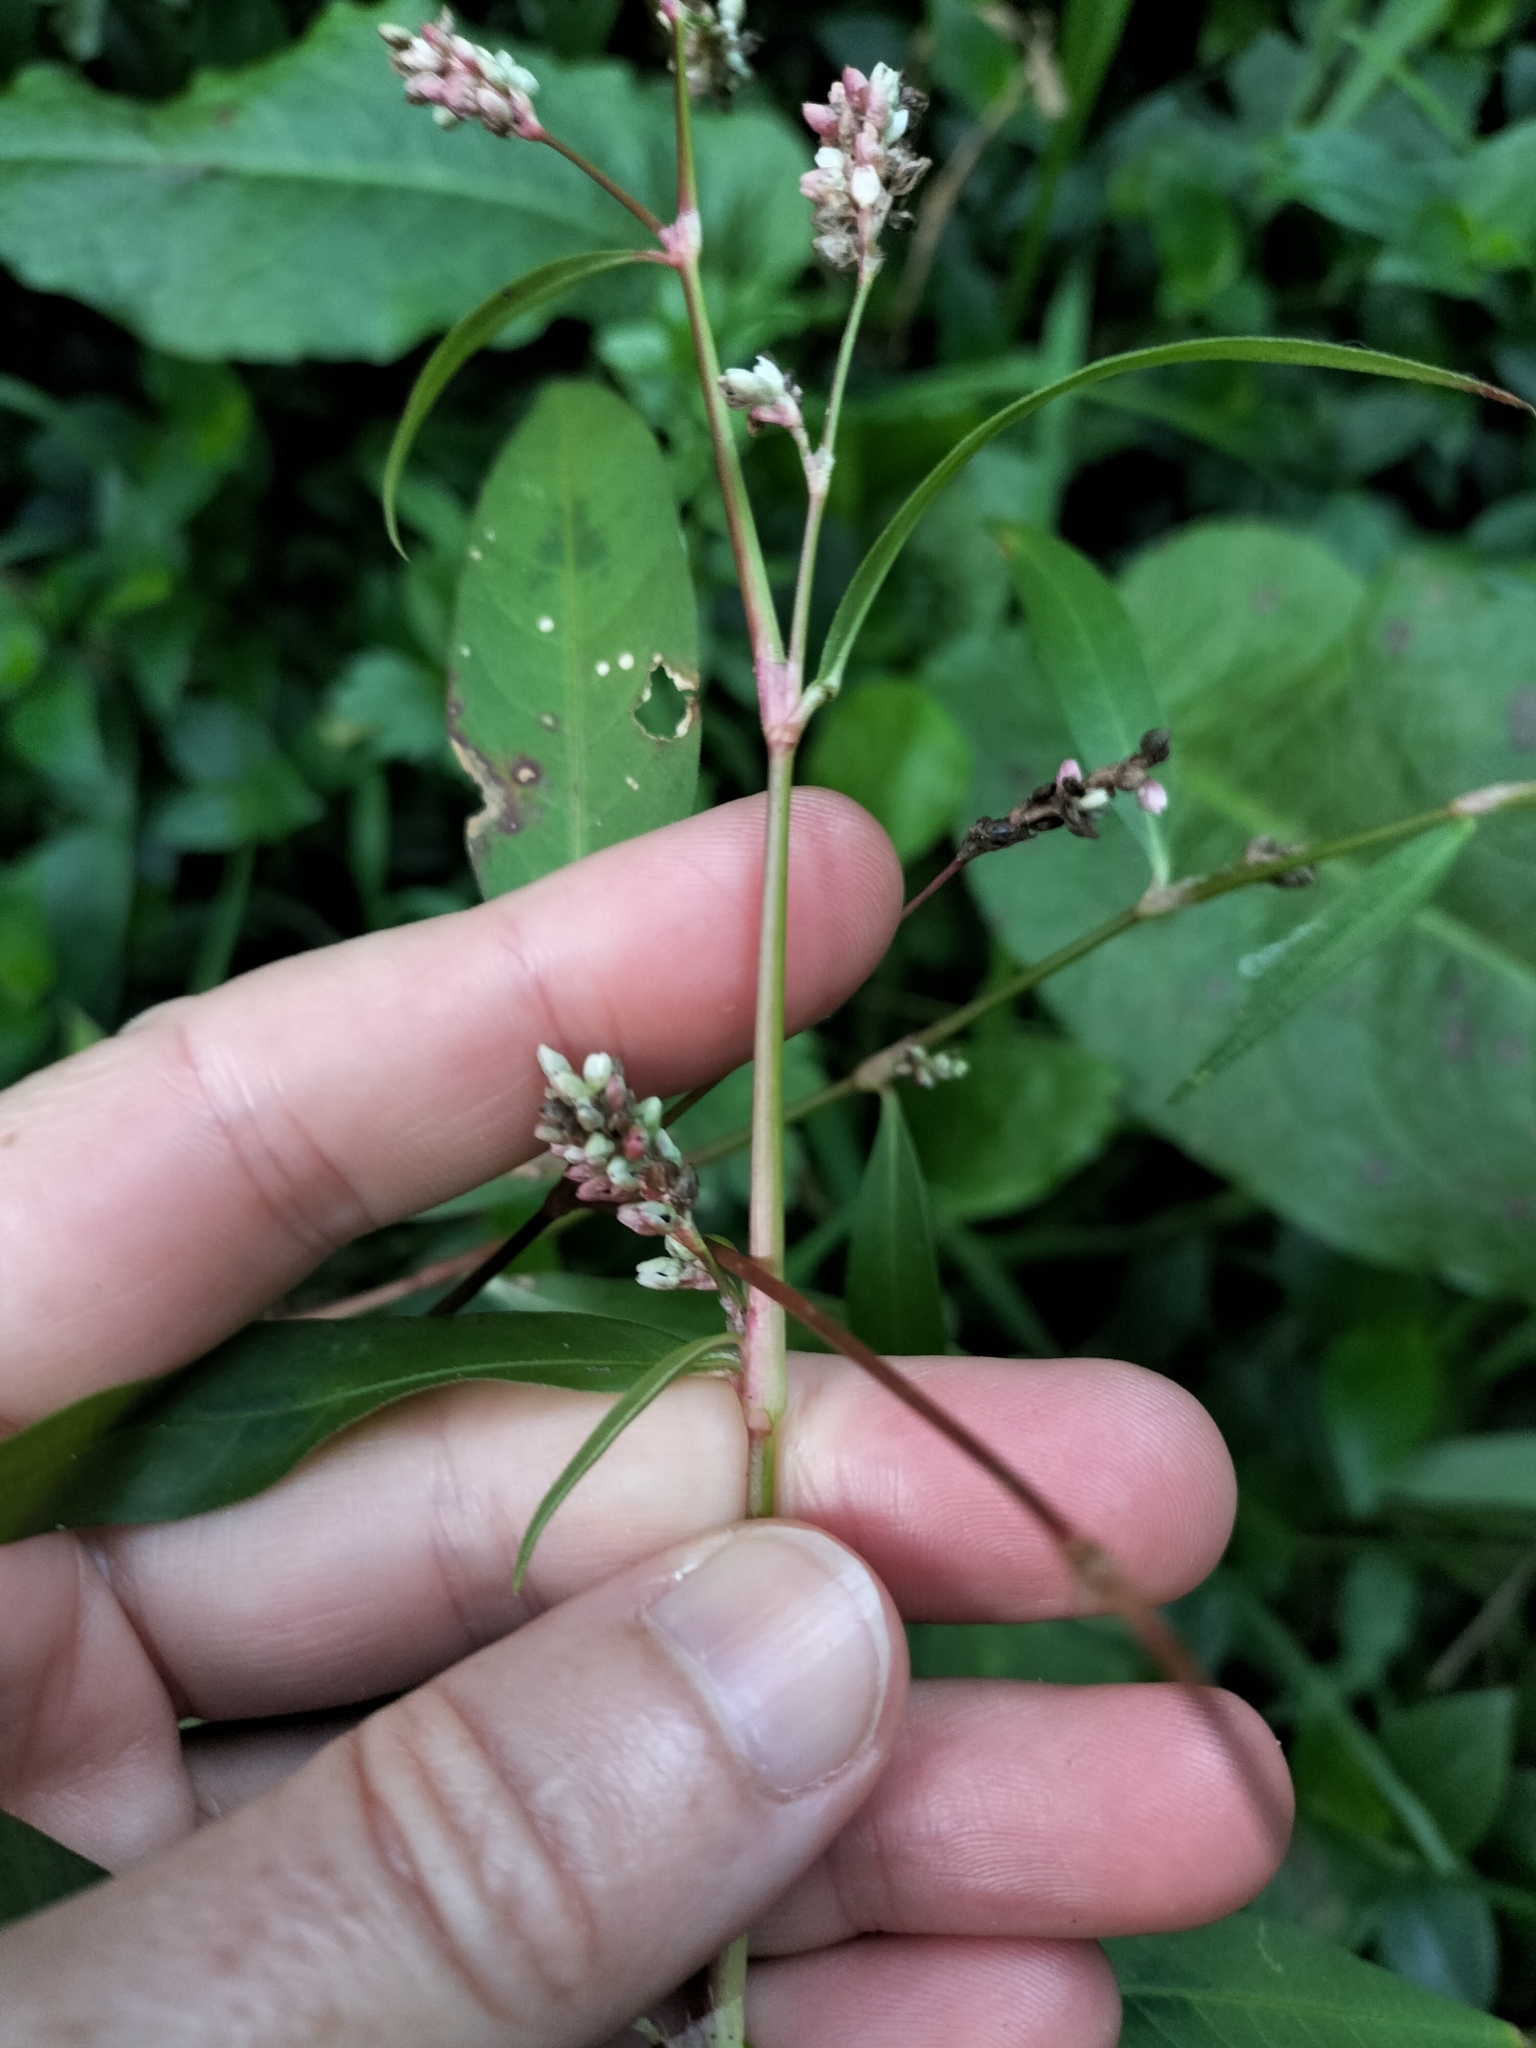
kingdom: Plantae
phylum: Tracheophyta
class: Magnoliopsida
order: Caryophyllales
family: Polygonaceae
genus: Persicaria
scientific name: Persicaria maculosa
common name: Redshank
